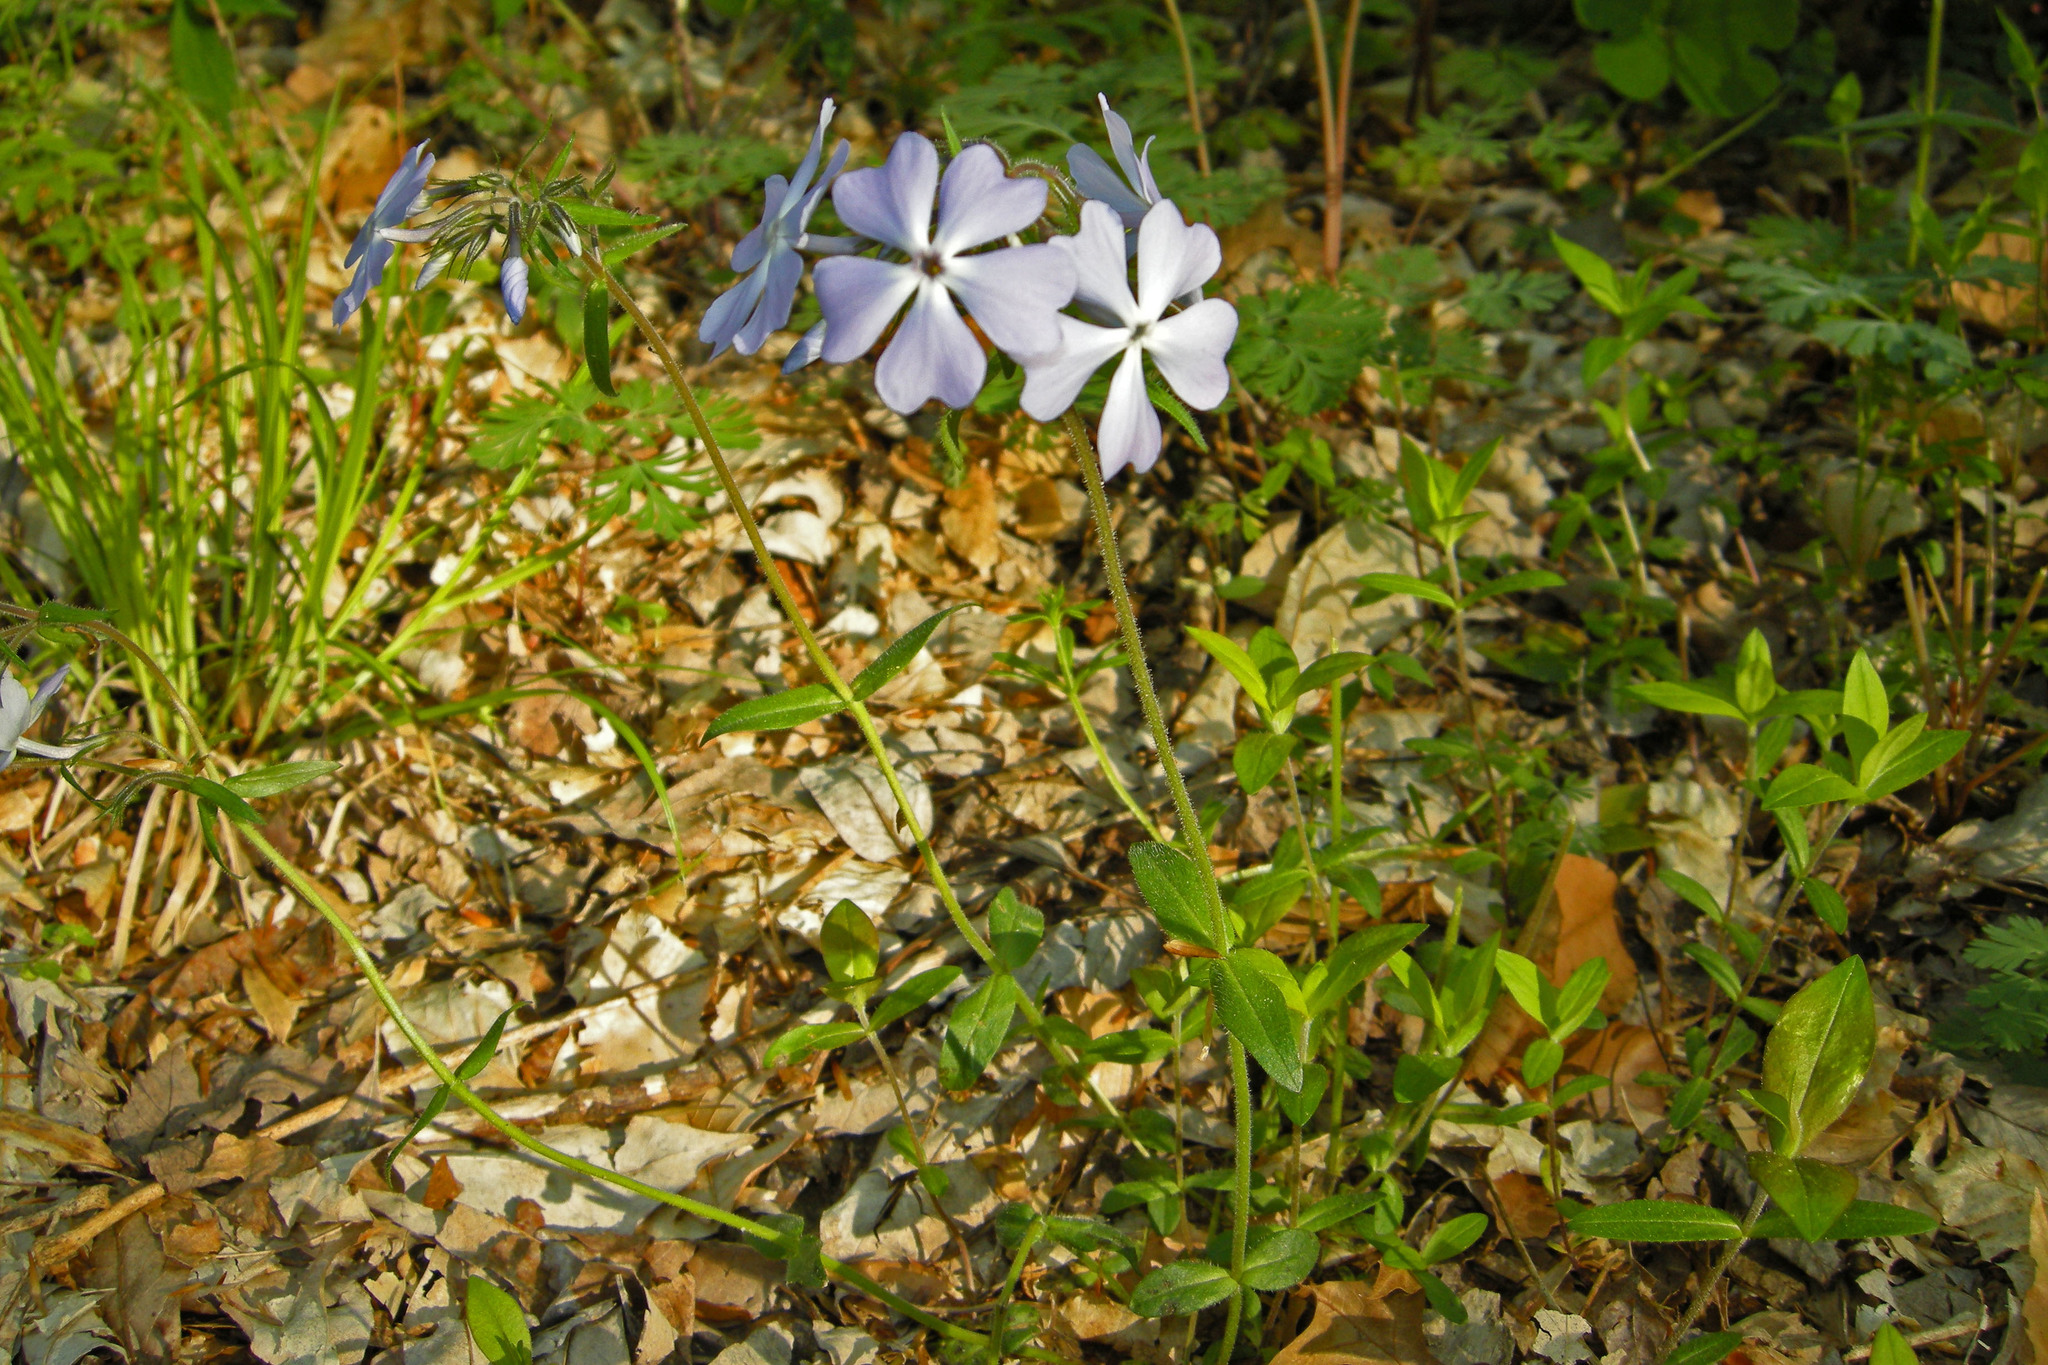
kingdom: Plantae
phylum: Tracheophyta
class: Magnoliopsida
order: Ericales
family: Polemoniaceae
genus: Phlox
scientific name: Phlox divaricata
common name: Blue phlox
